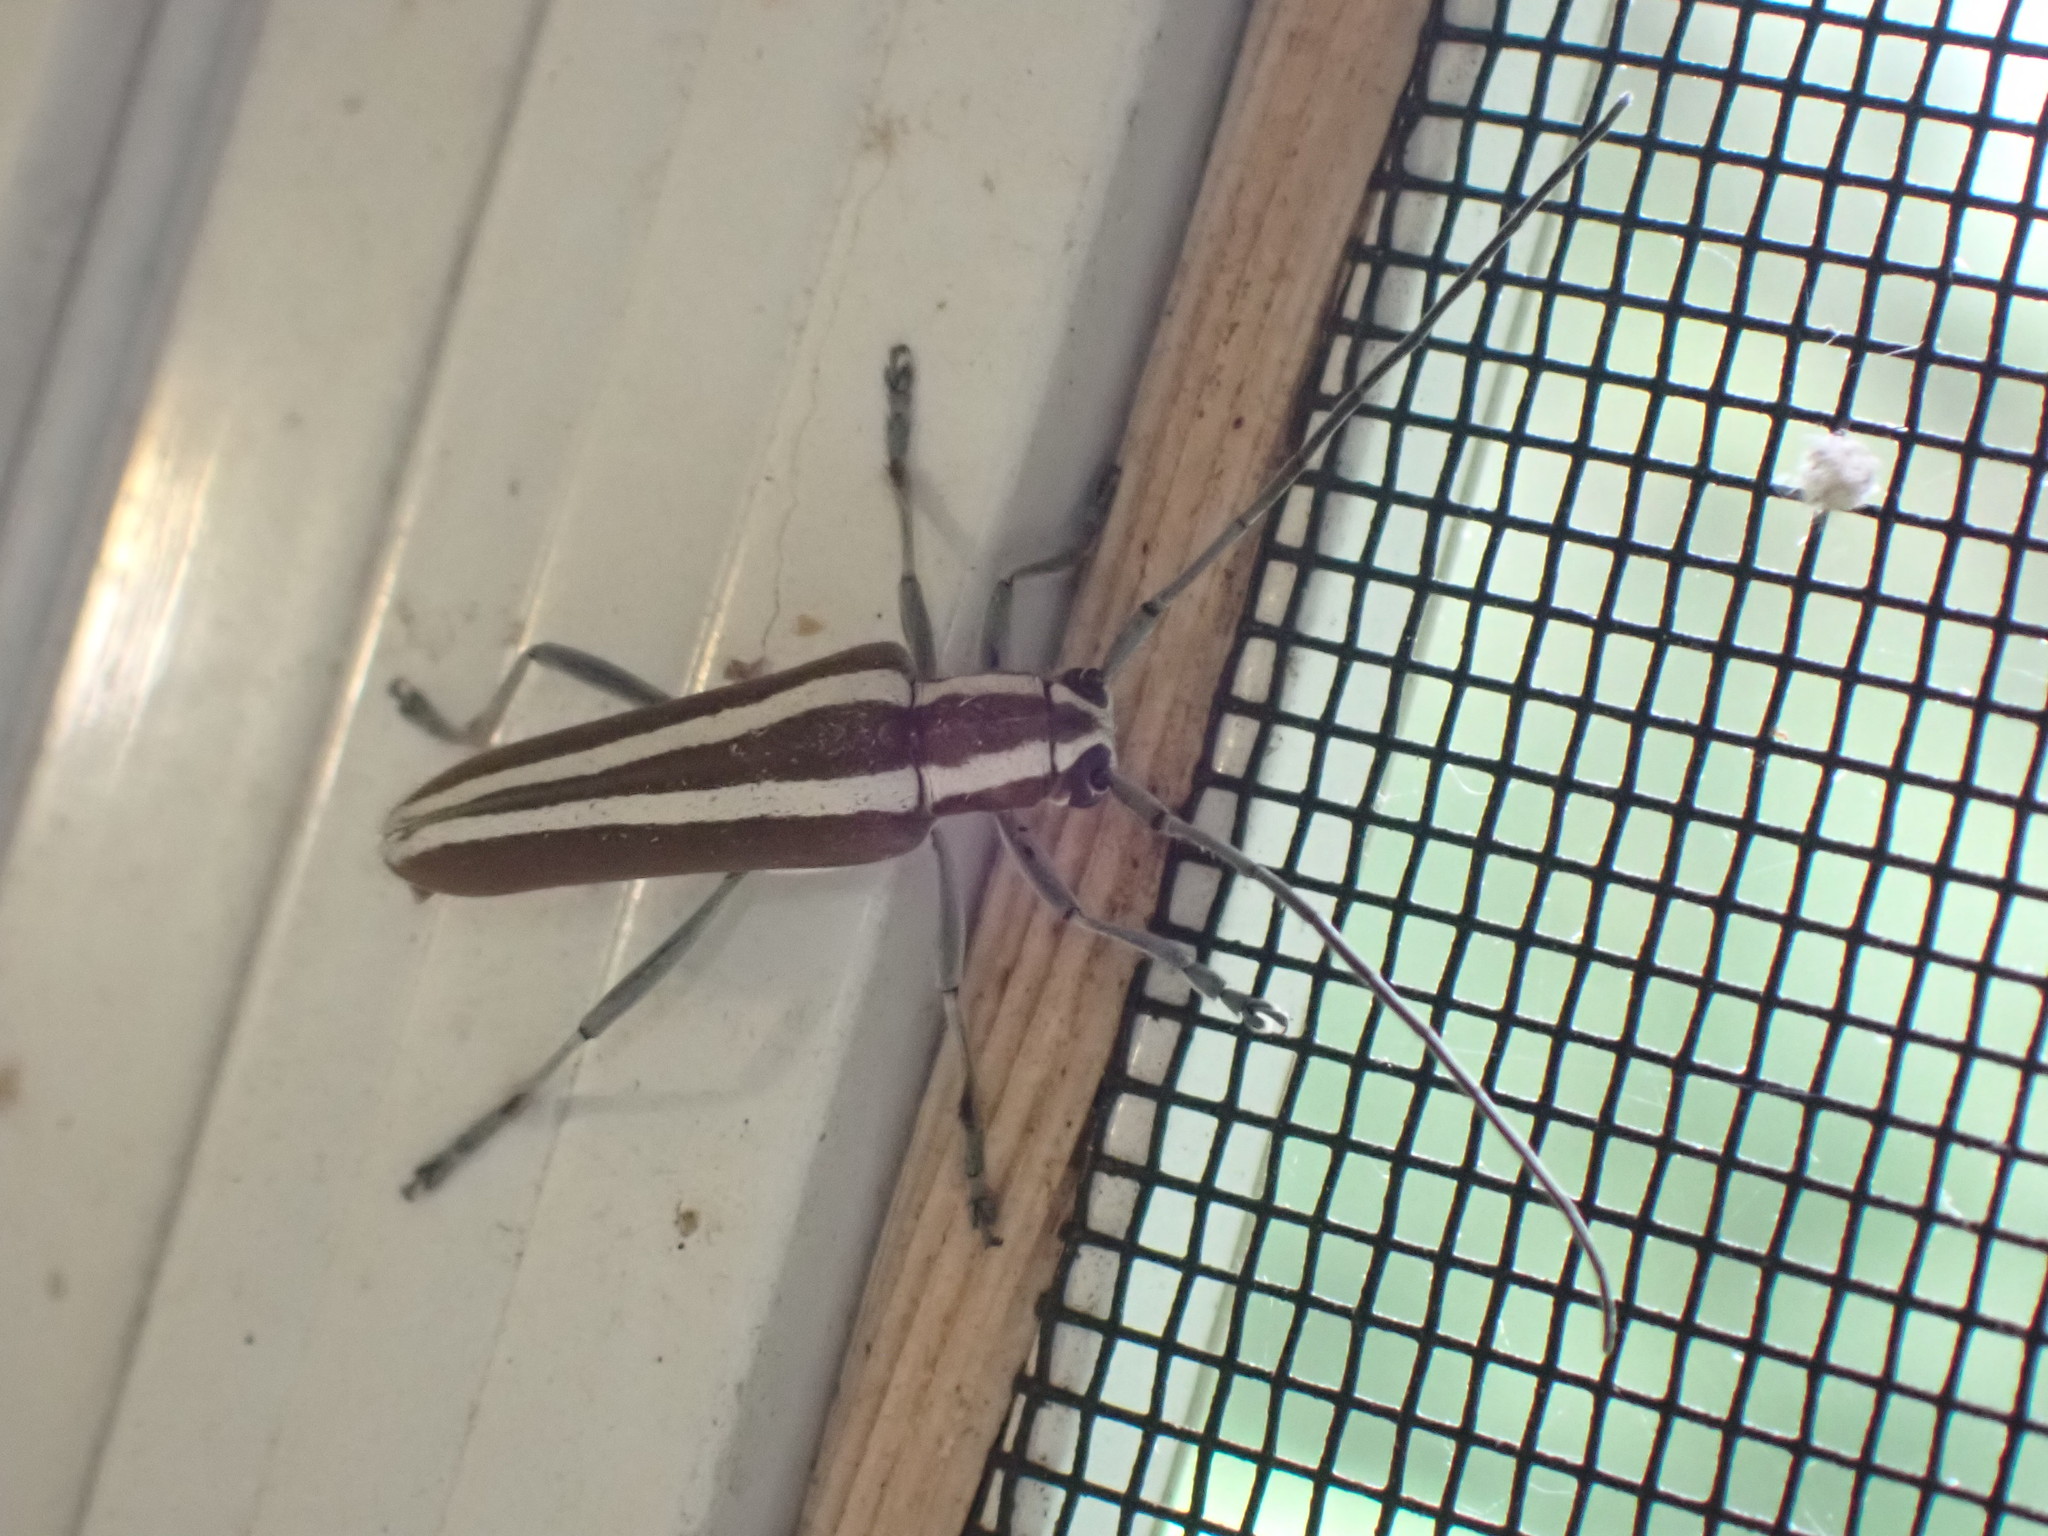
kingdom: Animalia
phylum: Arthropoda
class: Insecta
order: Coleoptera
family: Cerambycidae
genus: Saperda
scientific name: Saperda candida
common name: Round-headed borer
